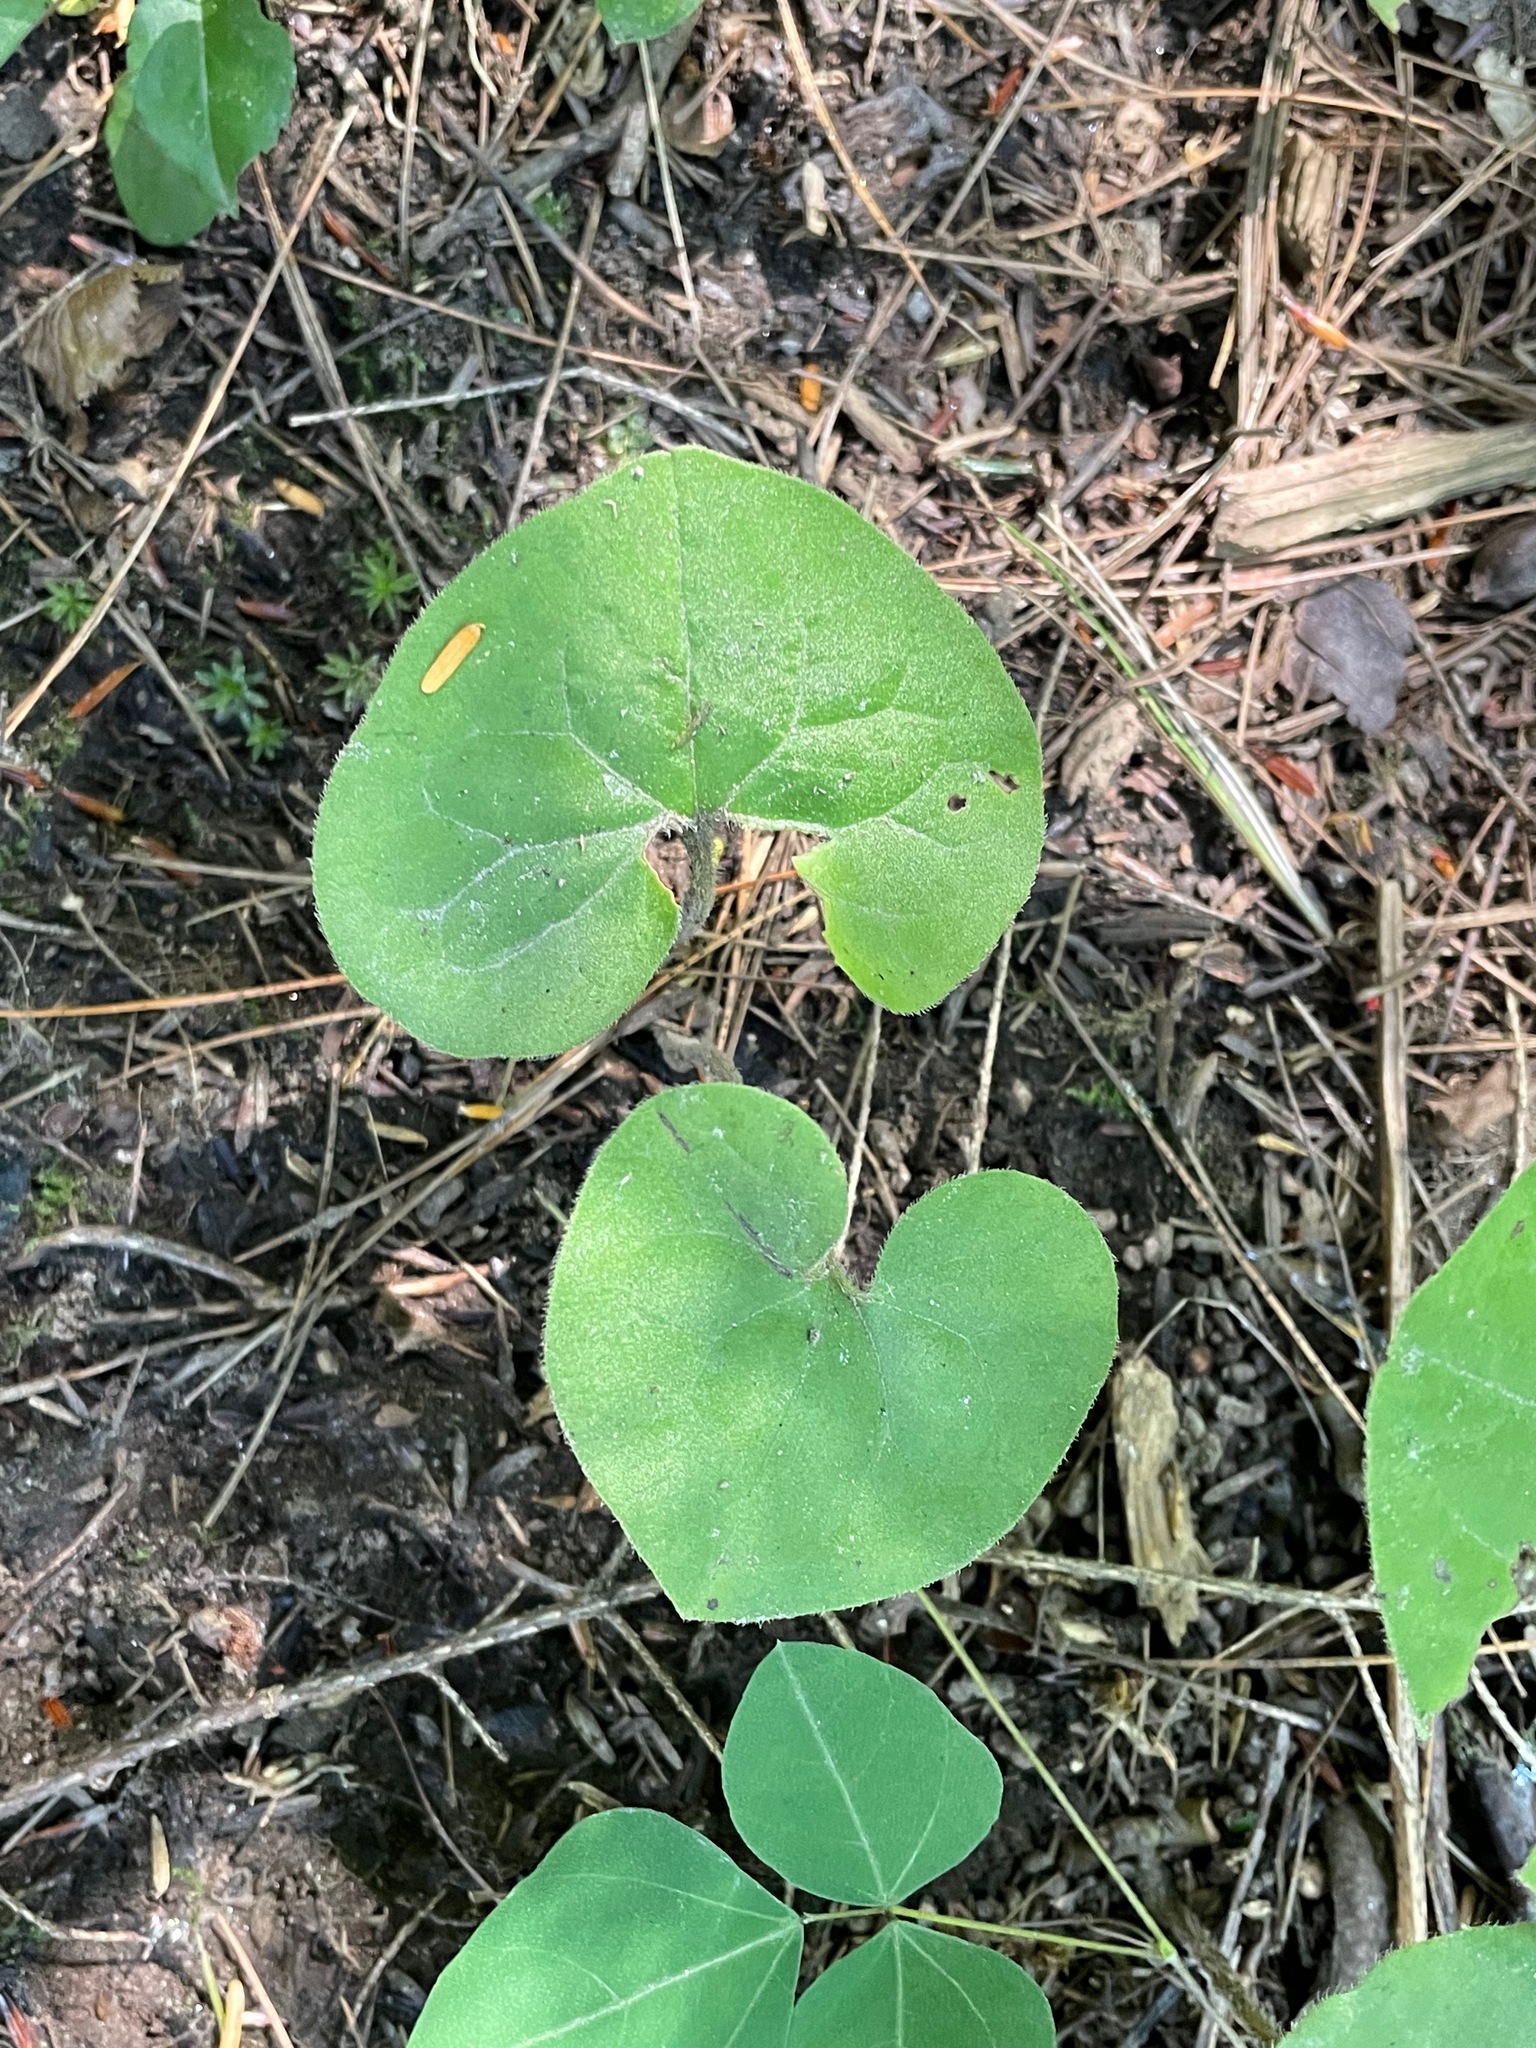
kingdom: Plantae
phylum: Tracheophyta
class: Magnoliopsida
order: Piperales
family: Aristolochiaceae
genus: Asarum
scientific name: Asarum canadense
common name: Wild ginger
